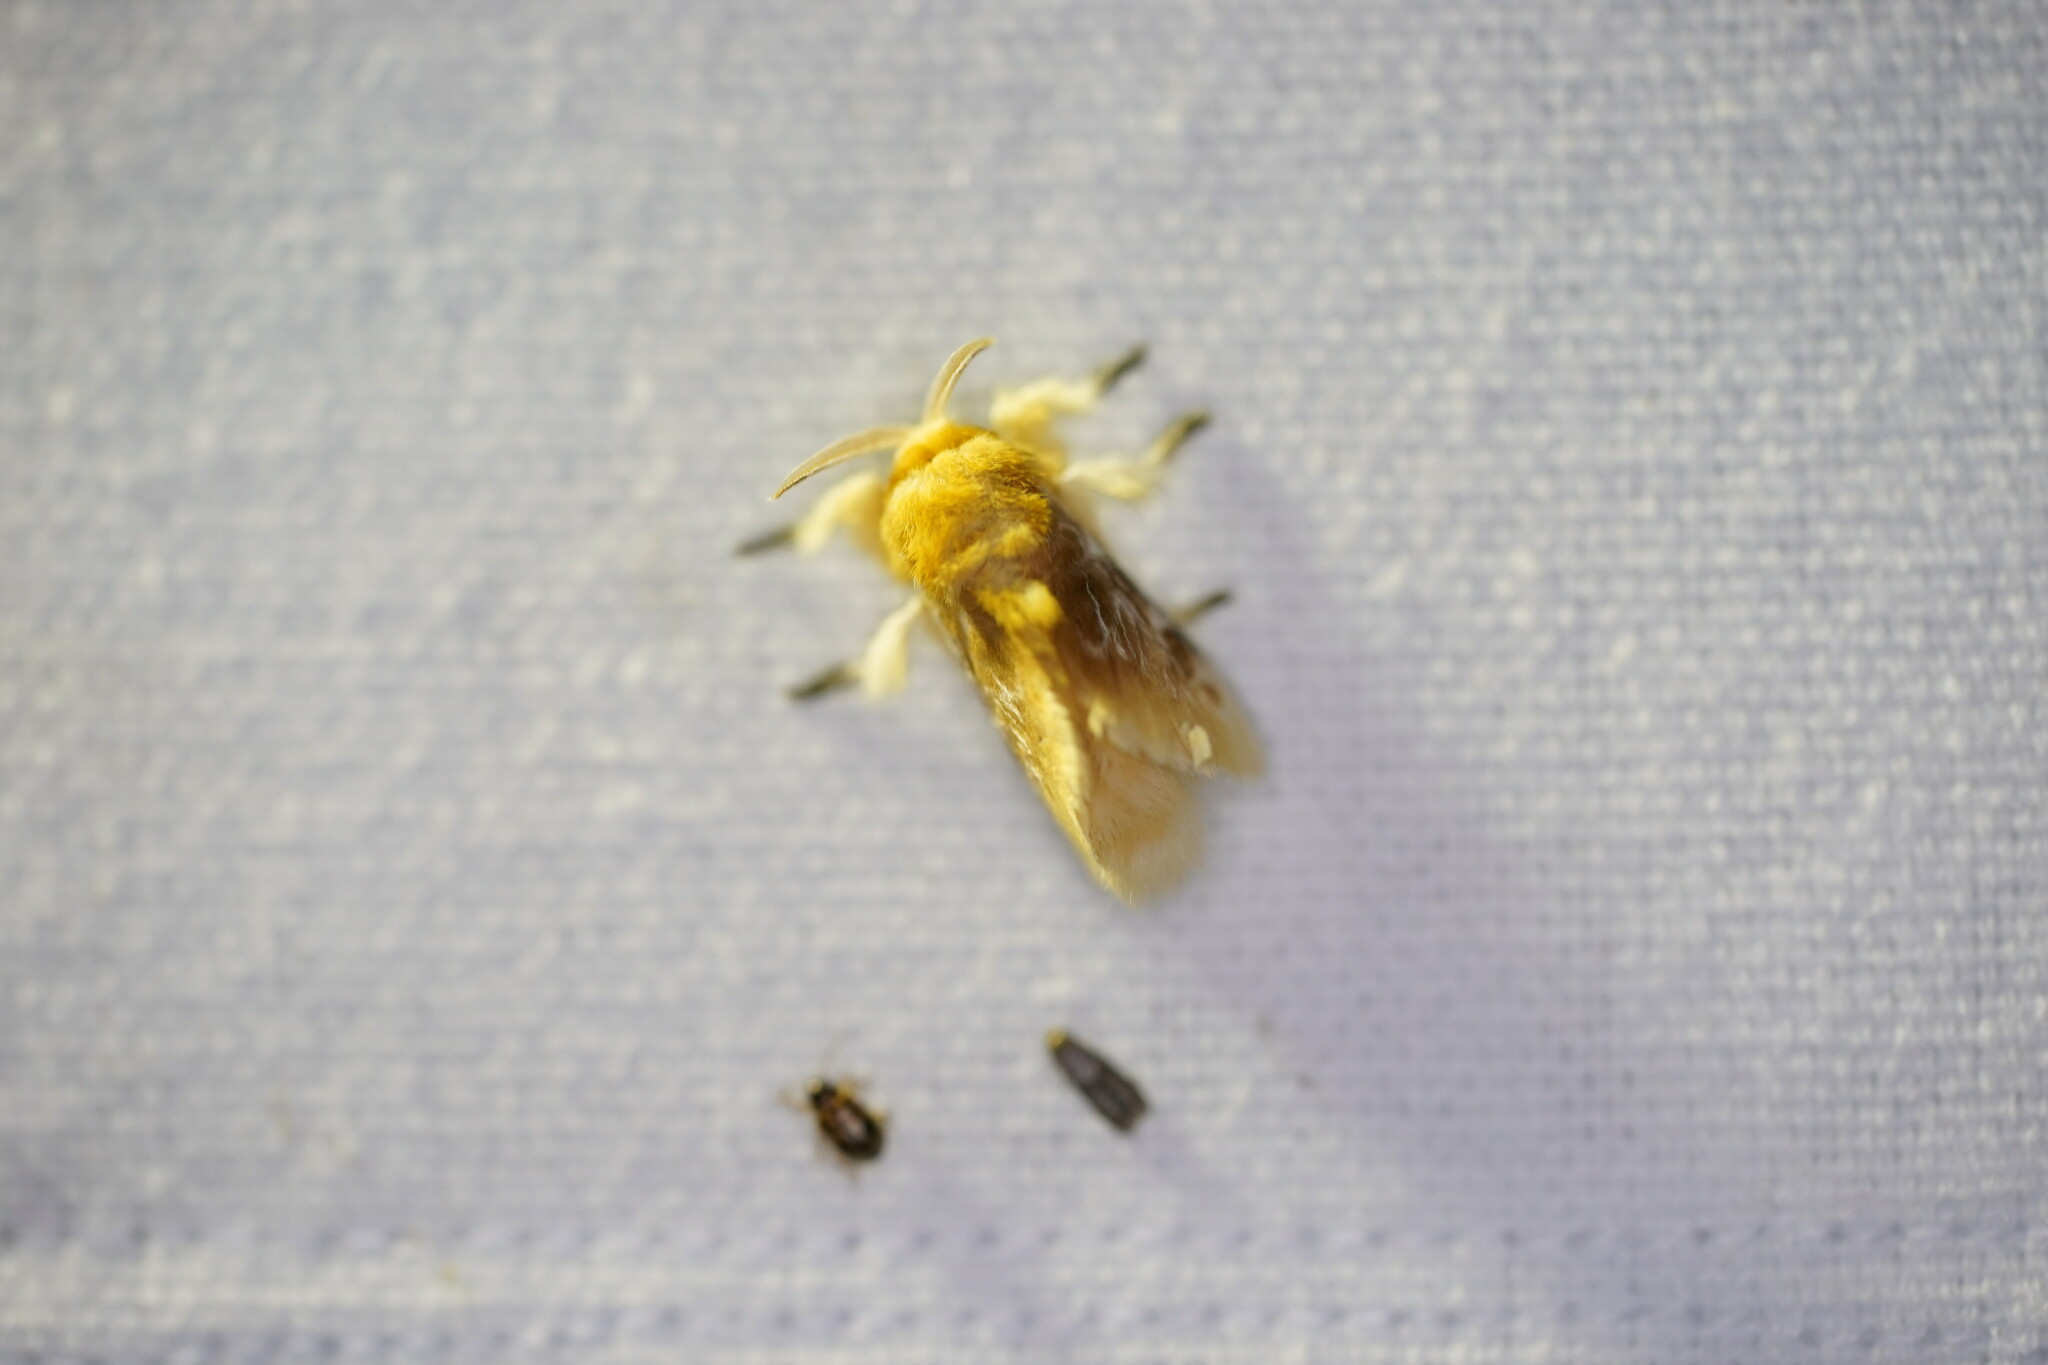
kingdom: Animalia
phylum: Arthropoda
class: Insecta
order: Lepidoptera
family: Megalopygidae
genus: Megalopyge
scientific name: Megalopyge opercularis
